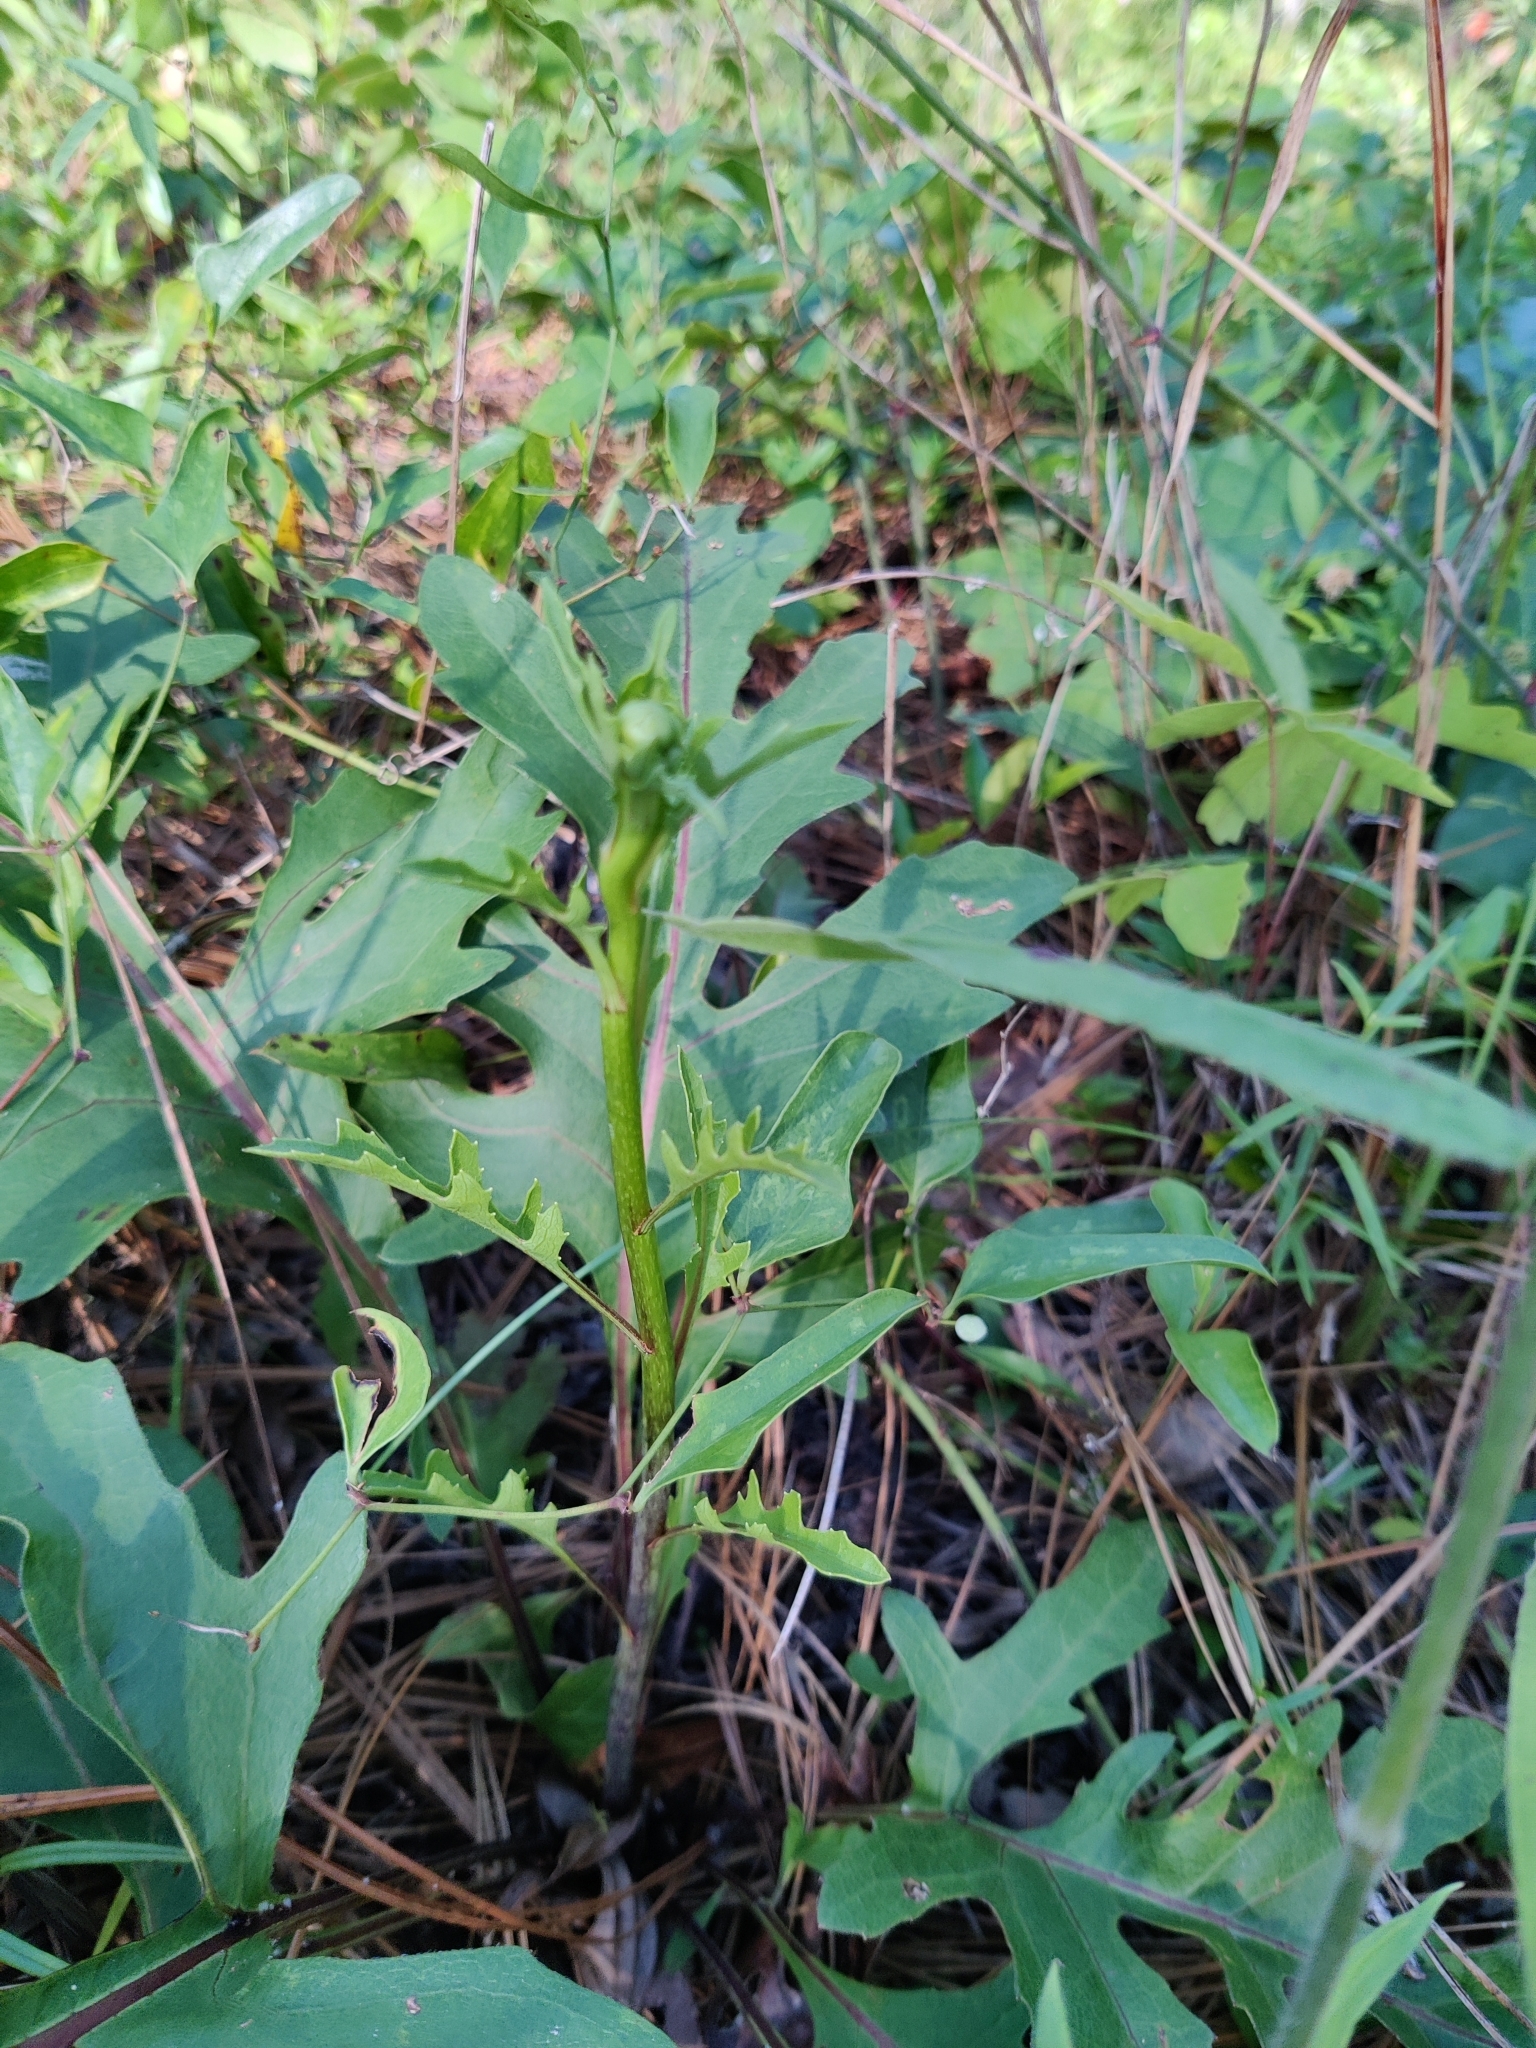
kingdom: Plantae
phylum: Tracheophyta
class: Magnoliopsida
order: Asterales
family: Asteraceae
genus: Silphium
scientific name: Silphium compositum
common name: Lesser basal-leaf rosinweed
